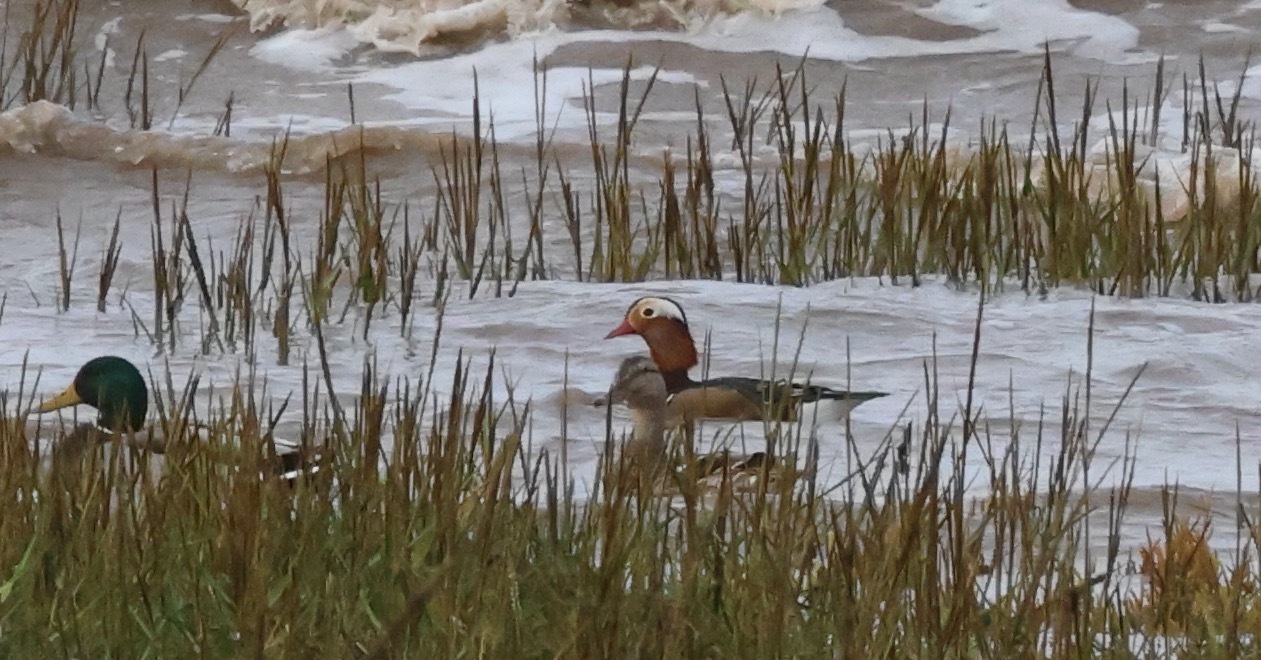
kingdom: Animalia
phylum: Chordata
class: Aves
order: Anseriformes
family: Anatidae
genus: Aix
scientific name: Aix galericulata
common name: Mandarin duck
